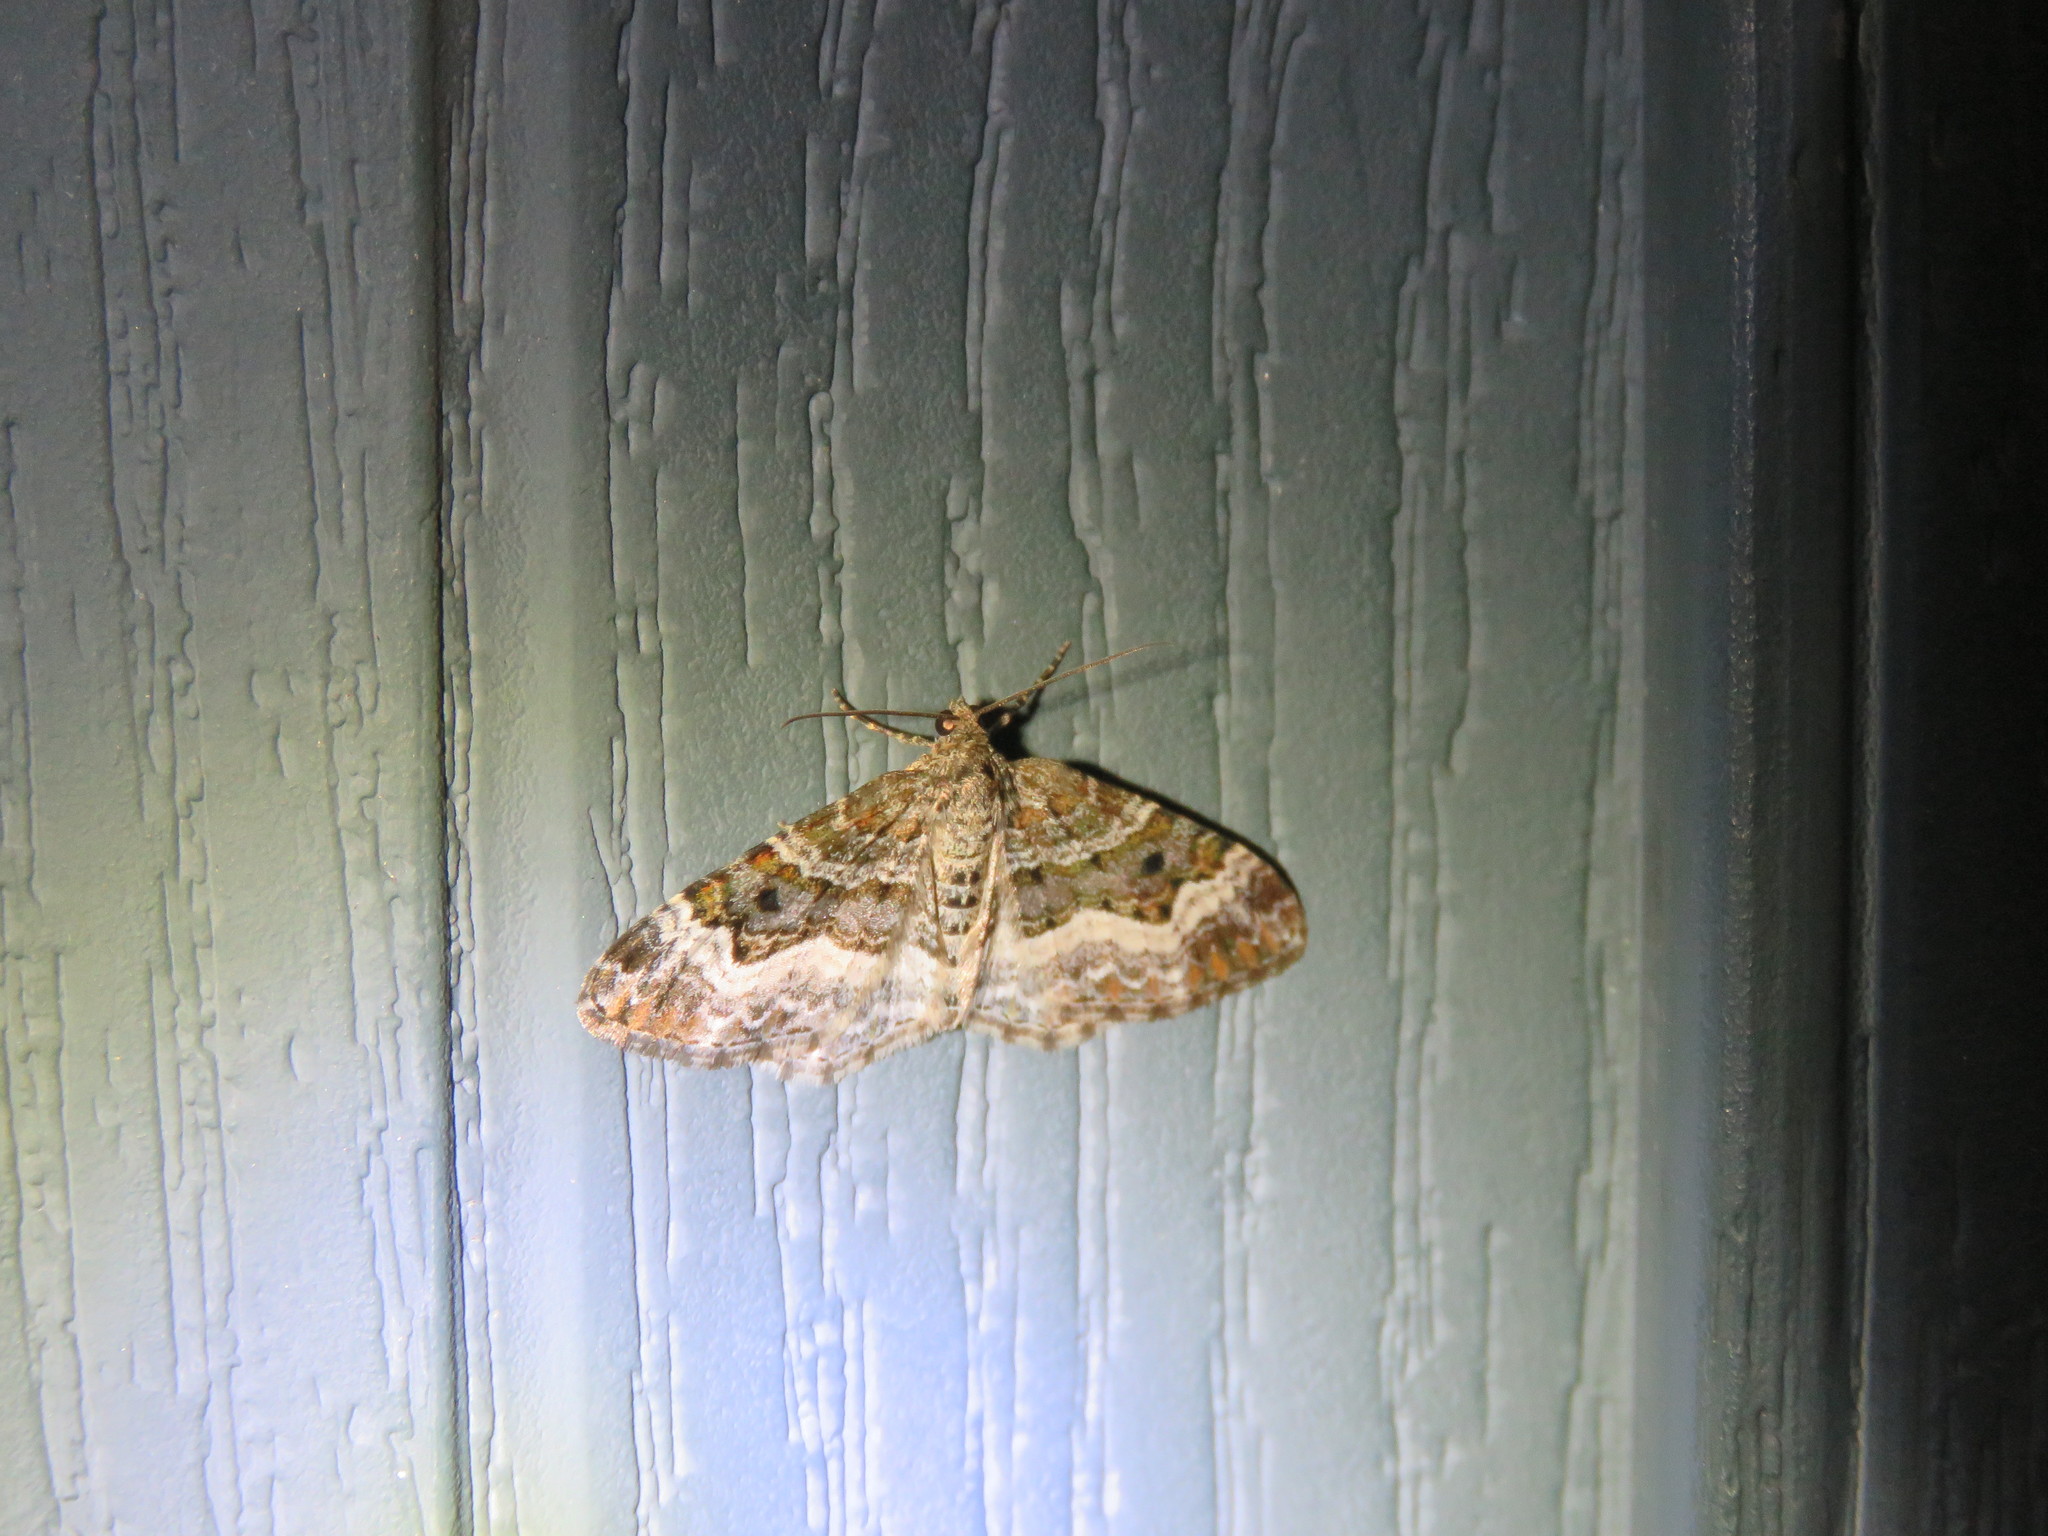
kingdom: Animalia
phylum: Arthropoda
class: Insecta
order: Lepidoptera
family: Geometridae
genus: Epirrhoe
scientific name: Epirrhoe alternata
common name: Common carpet
